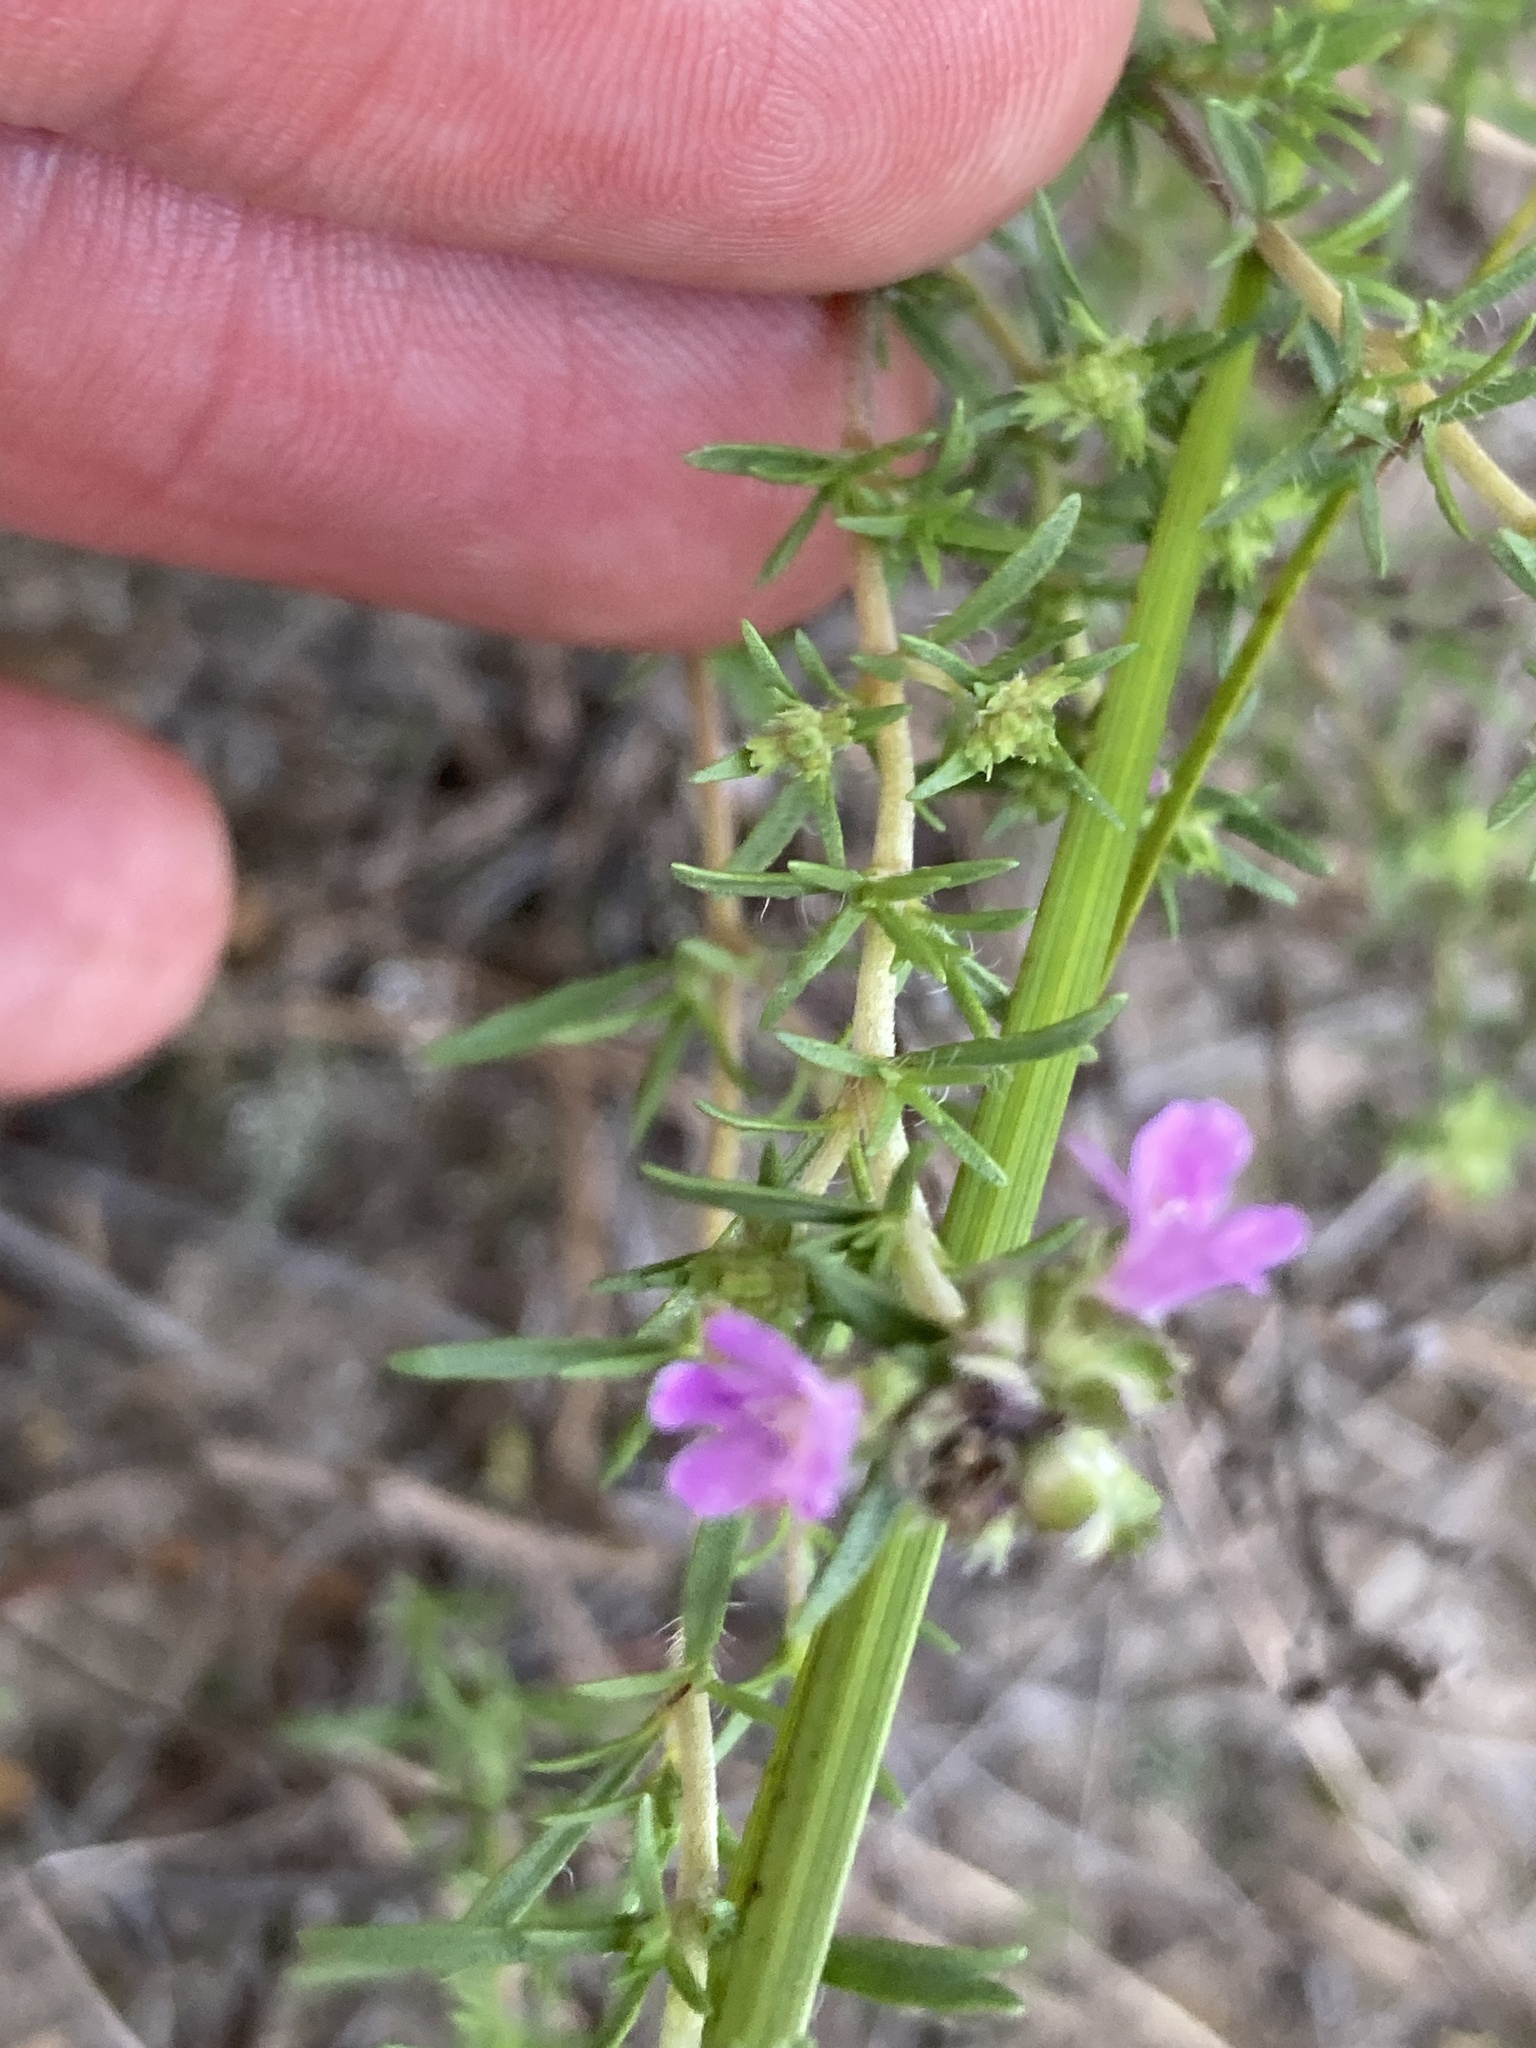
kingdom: Plantae
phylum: Tracheophyta
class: Magnoliopsida
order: Lamiales
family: Lamiaceae
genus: Thymus
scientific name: Thymus pallasianus
